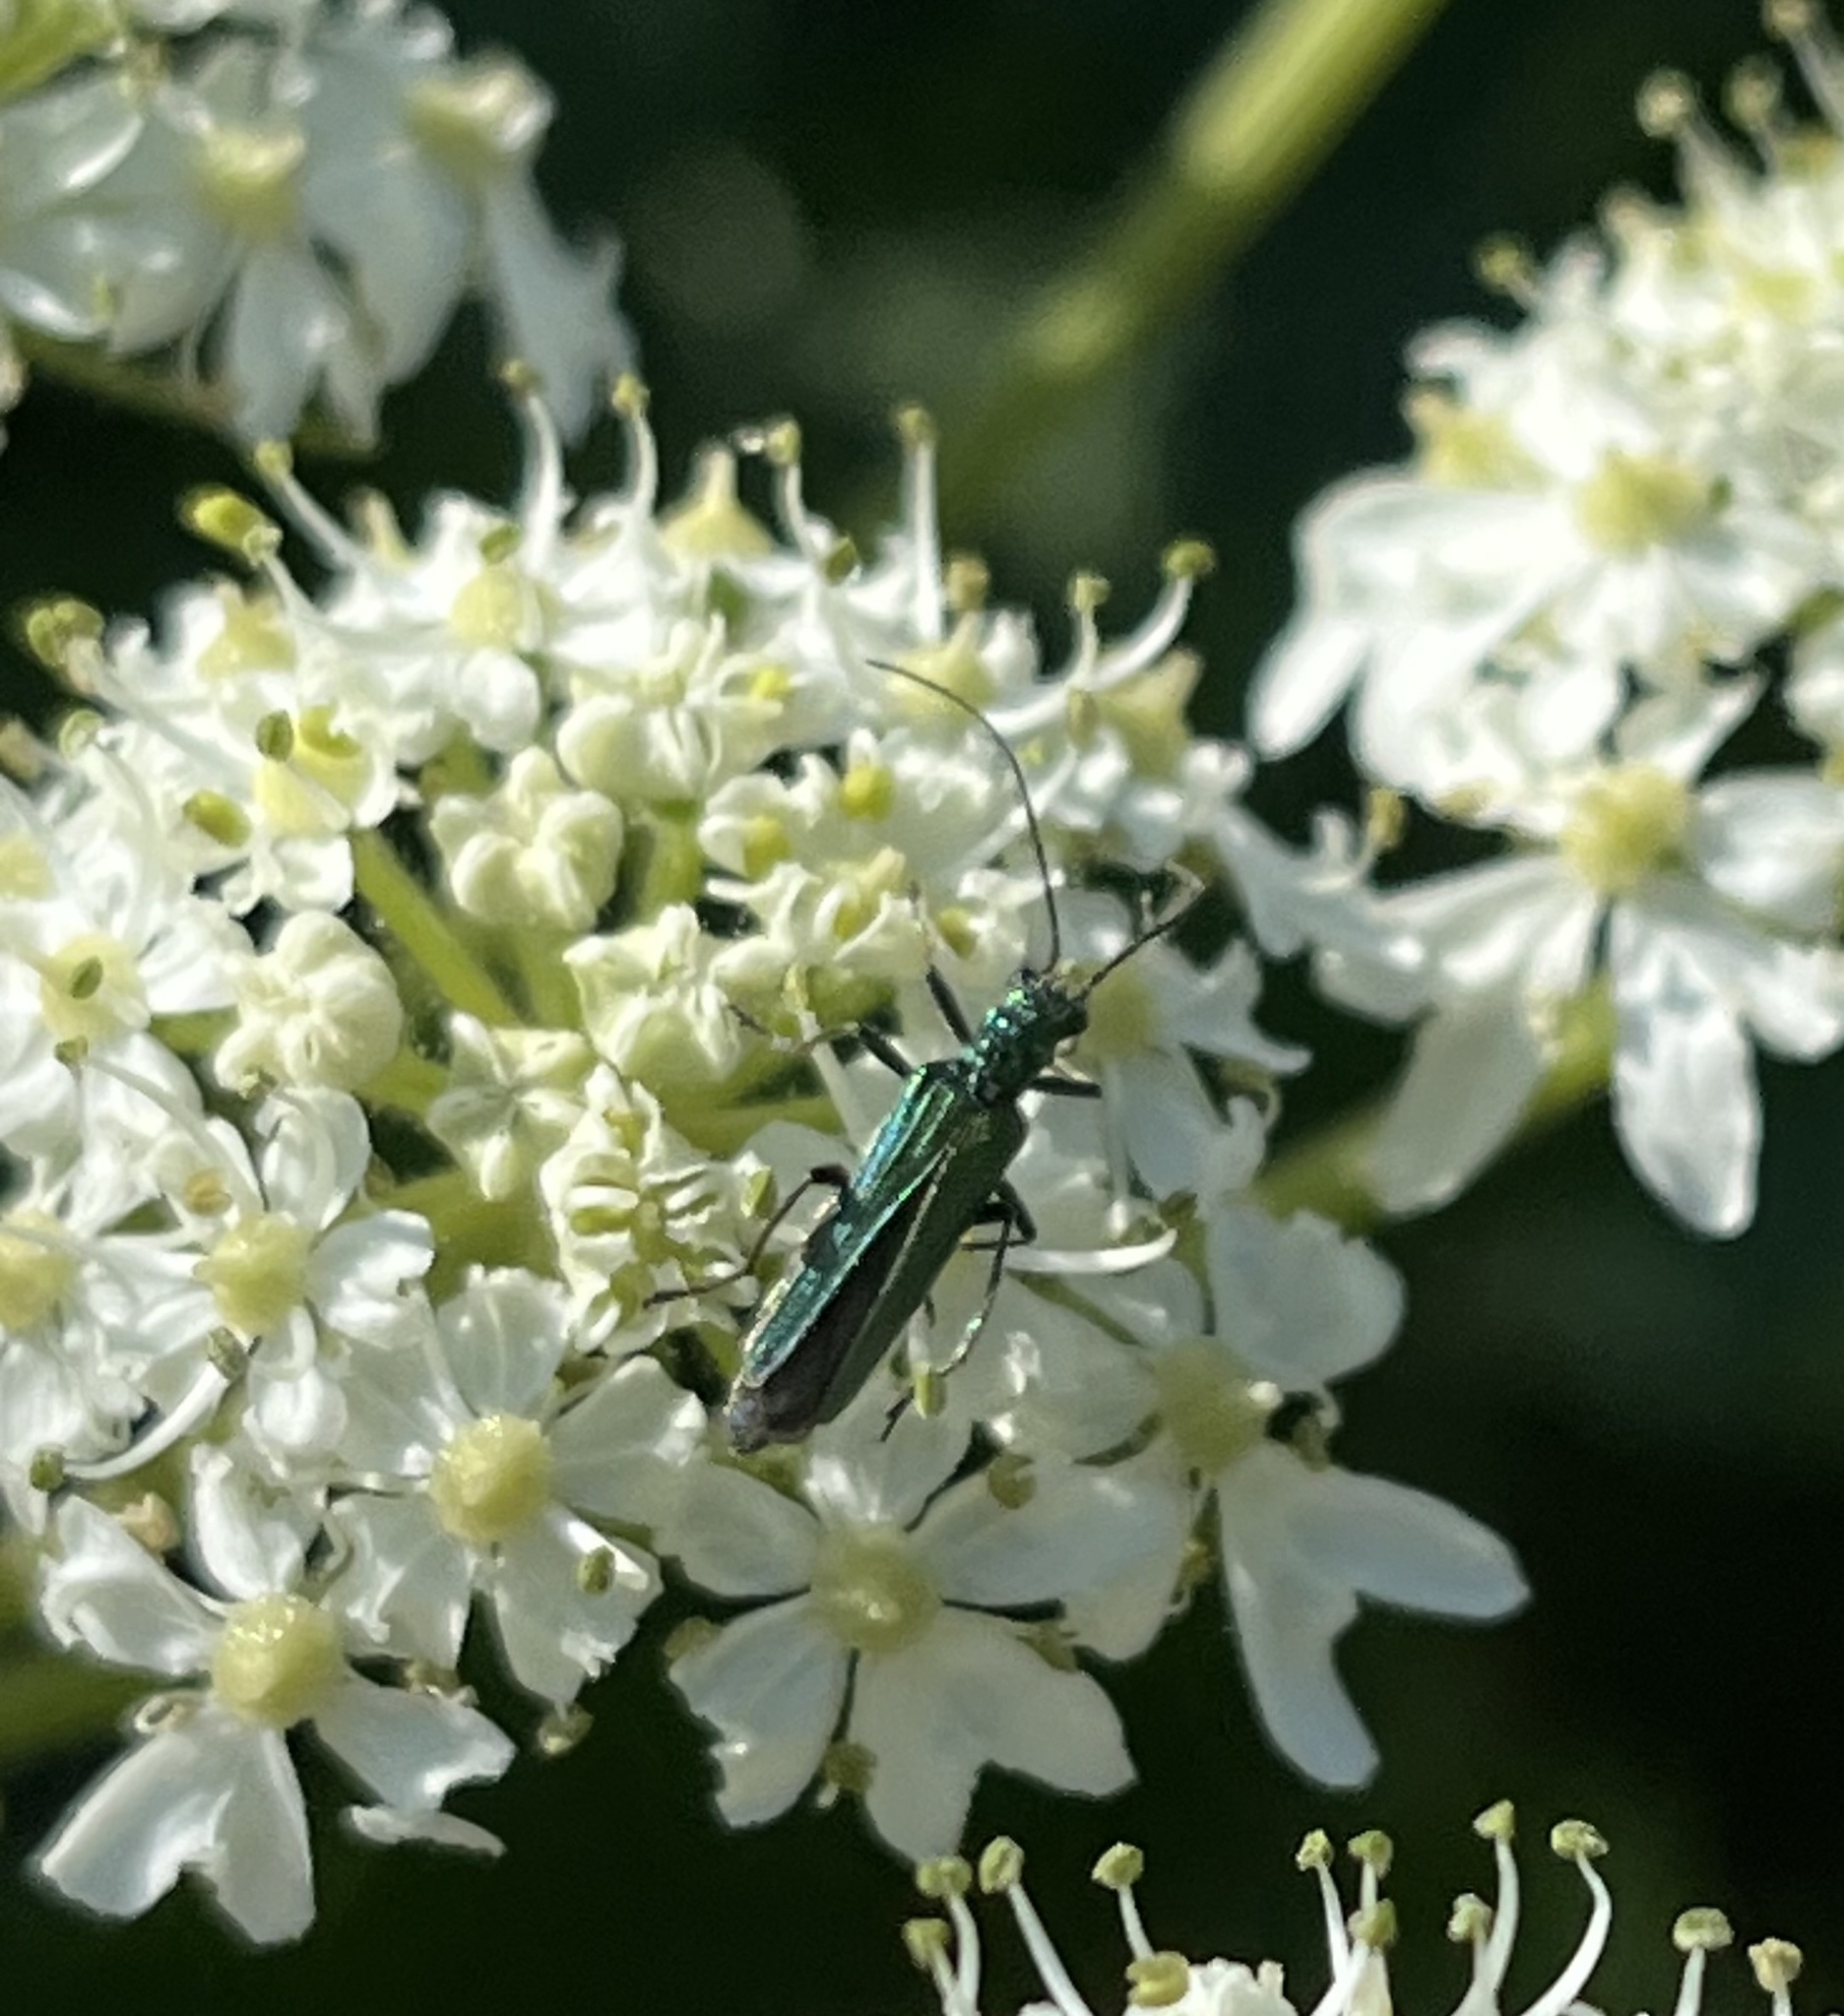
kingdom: Animalia
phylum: Arthropoda
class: Insecta
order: Coleoptera
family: Oedemeridae
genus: Oedemera
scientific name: Oedemera nobilis
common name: Swollen-thighed beetle
